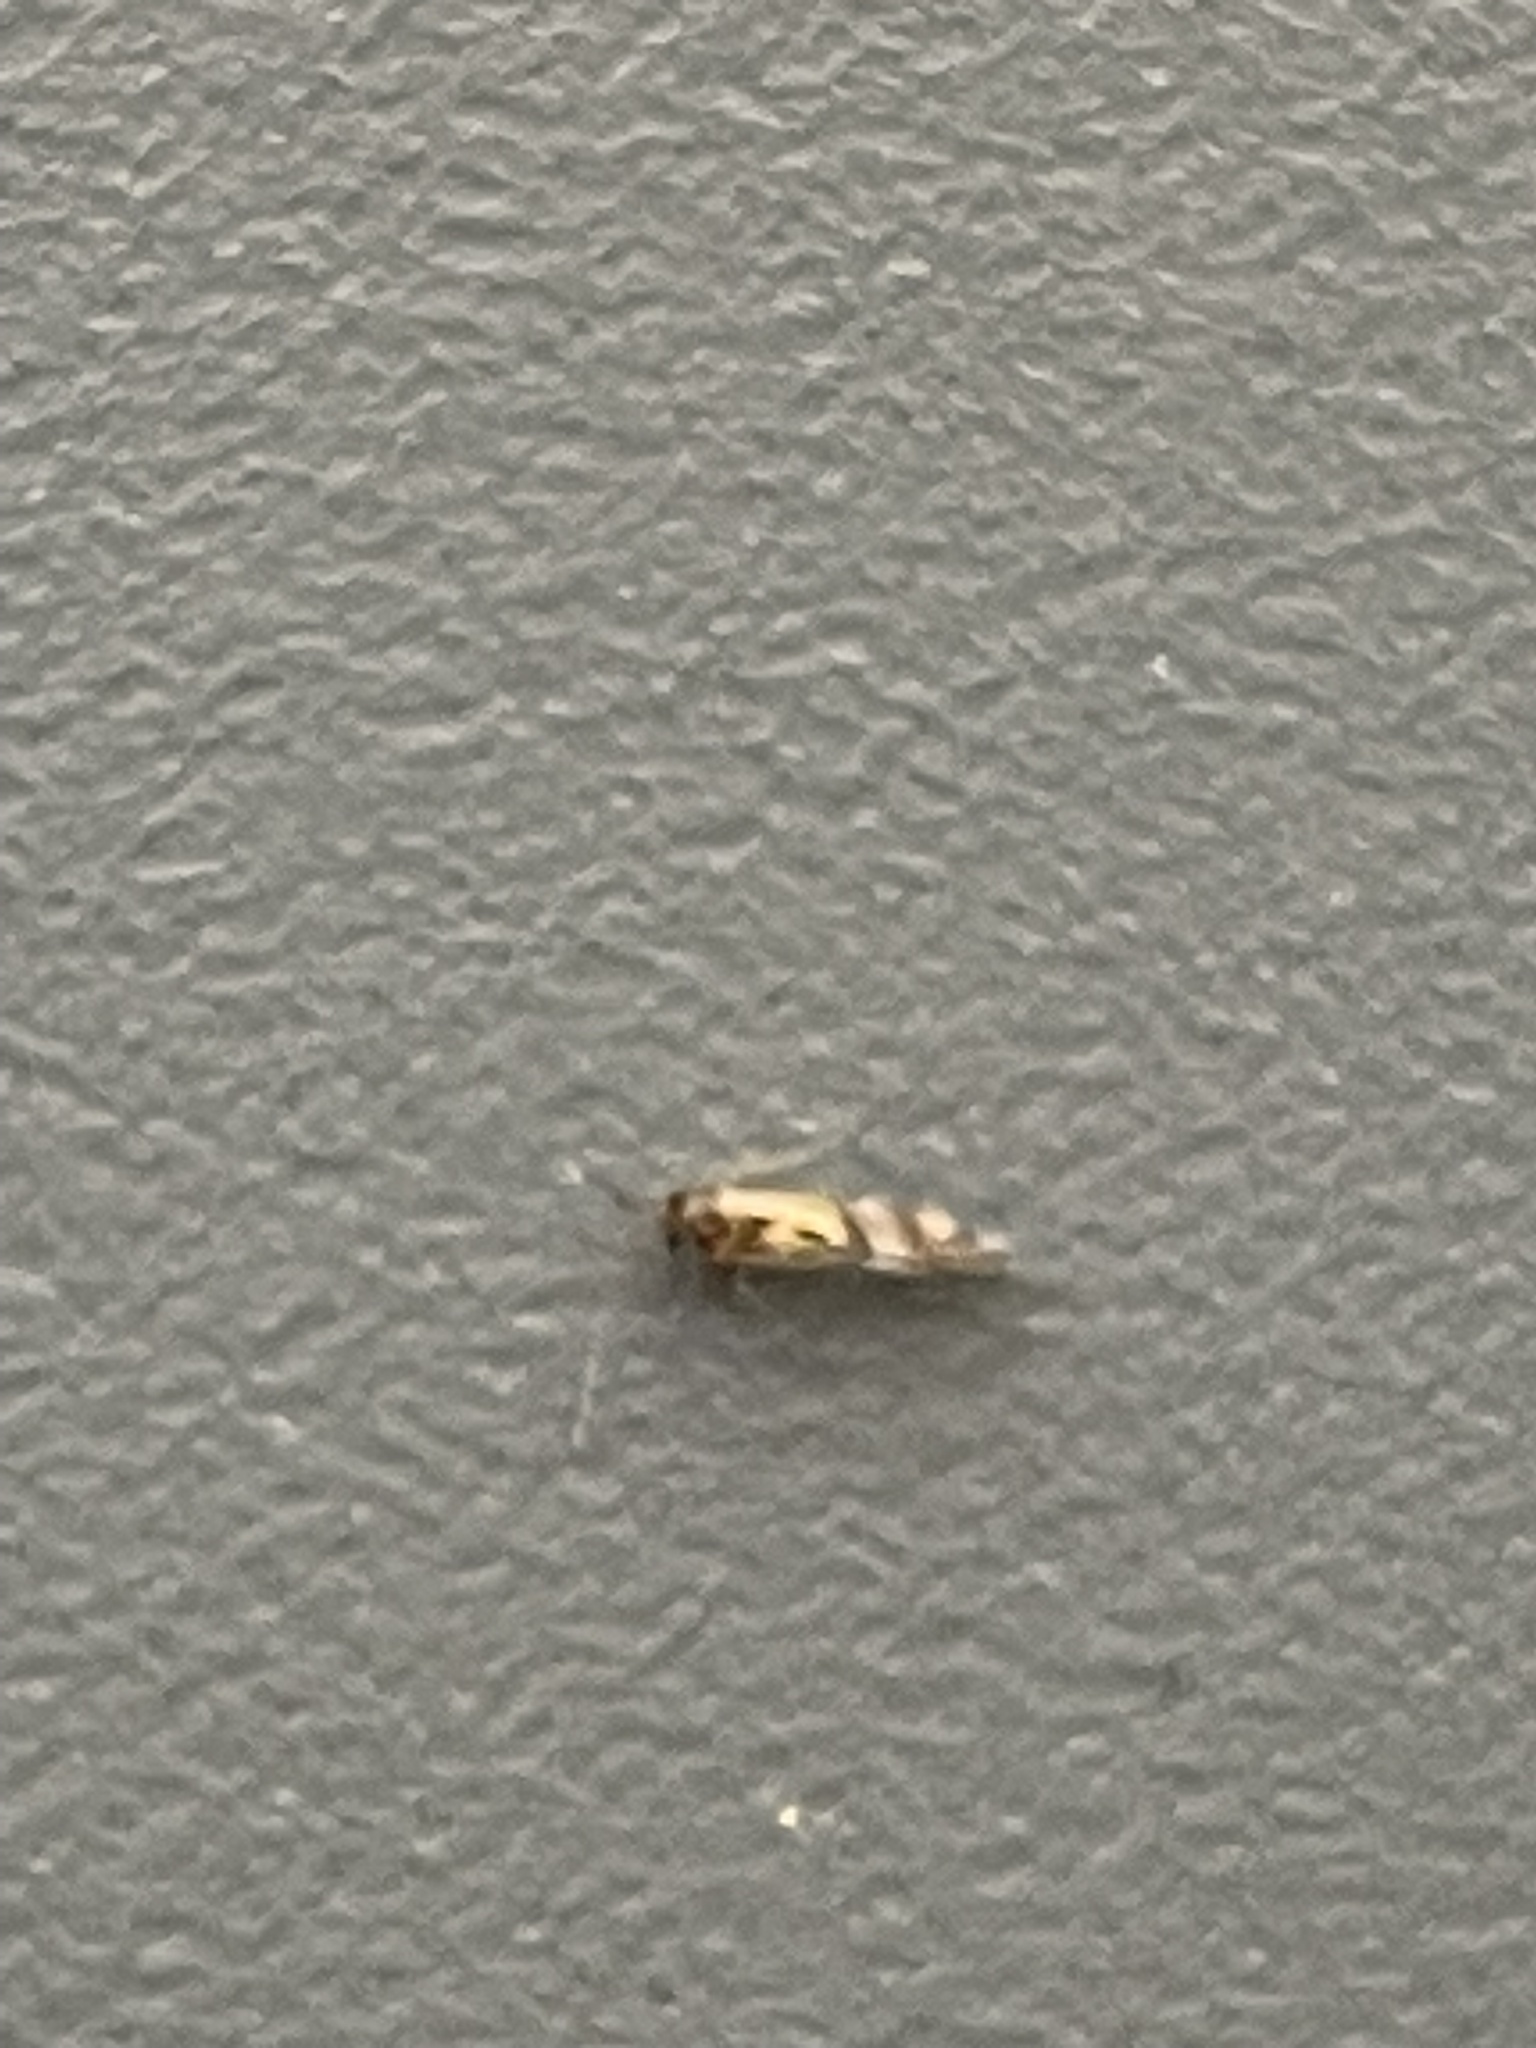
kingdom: Animalia
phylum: Arthropoda
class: Insecta
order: Psocodea
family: Stenopsocidae
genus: Graphopsocus
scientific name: Graphopsocus cruciatus
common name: Lizard bark louse
